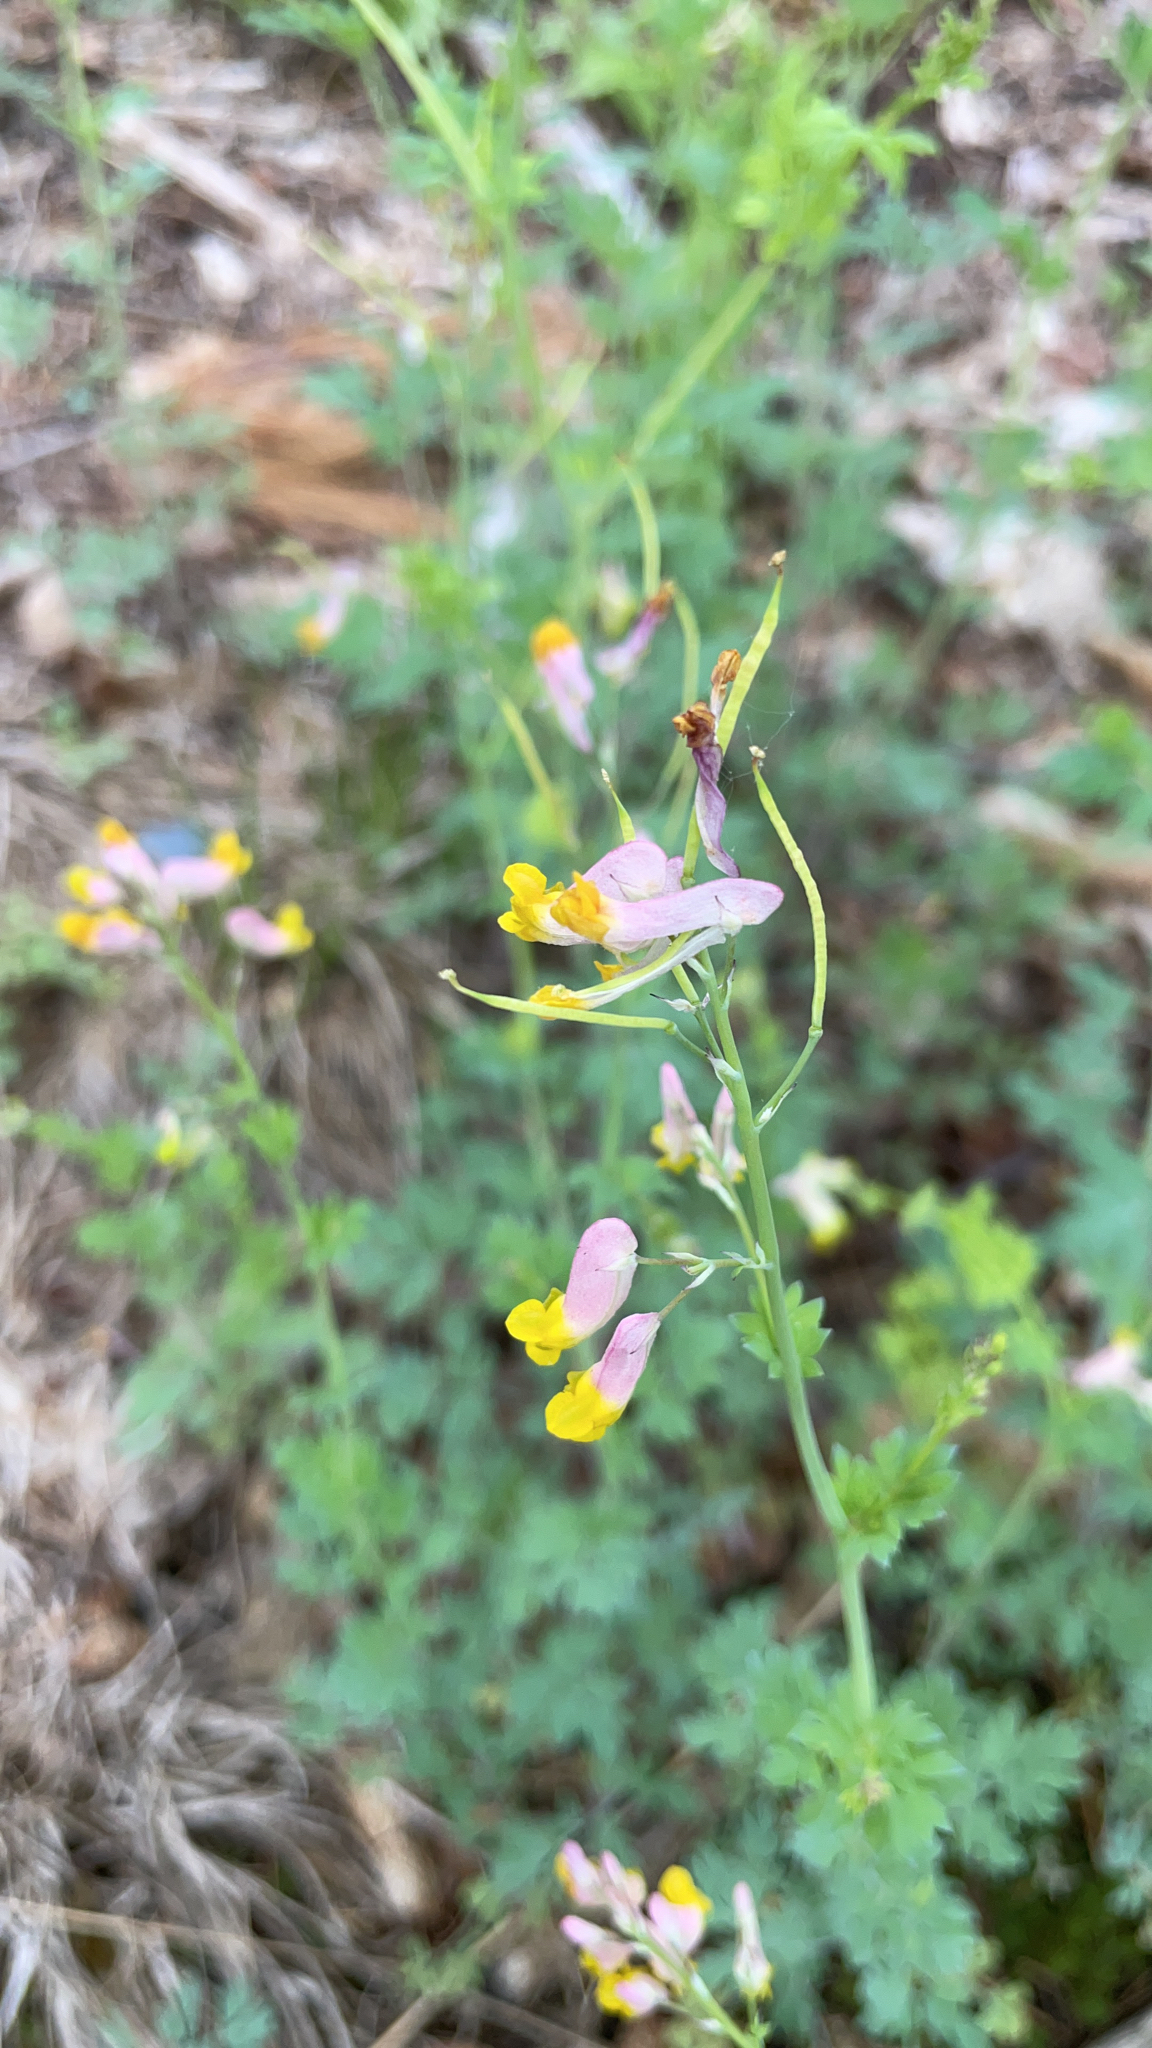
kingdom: Plantae
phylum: Tracheophyta
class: Magnoliopsida
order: Ranunculales
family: Papaveraceae
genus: Capnoides
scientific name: Capnoides sempervirens
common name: Rock harlequin
